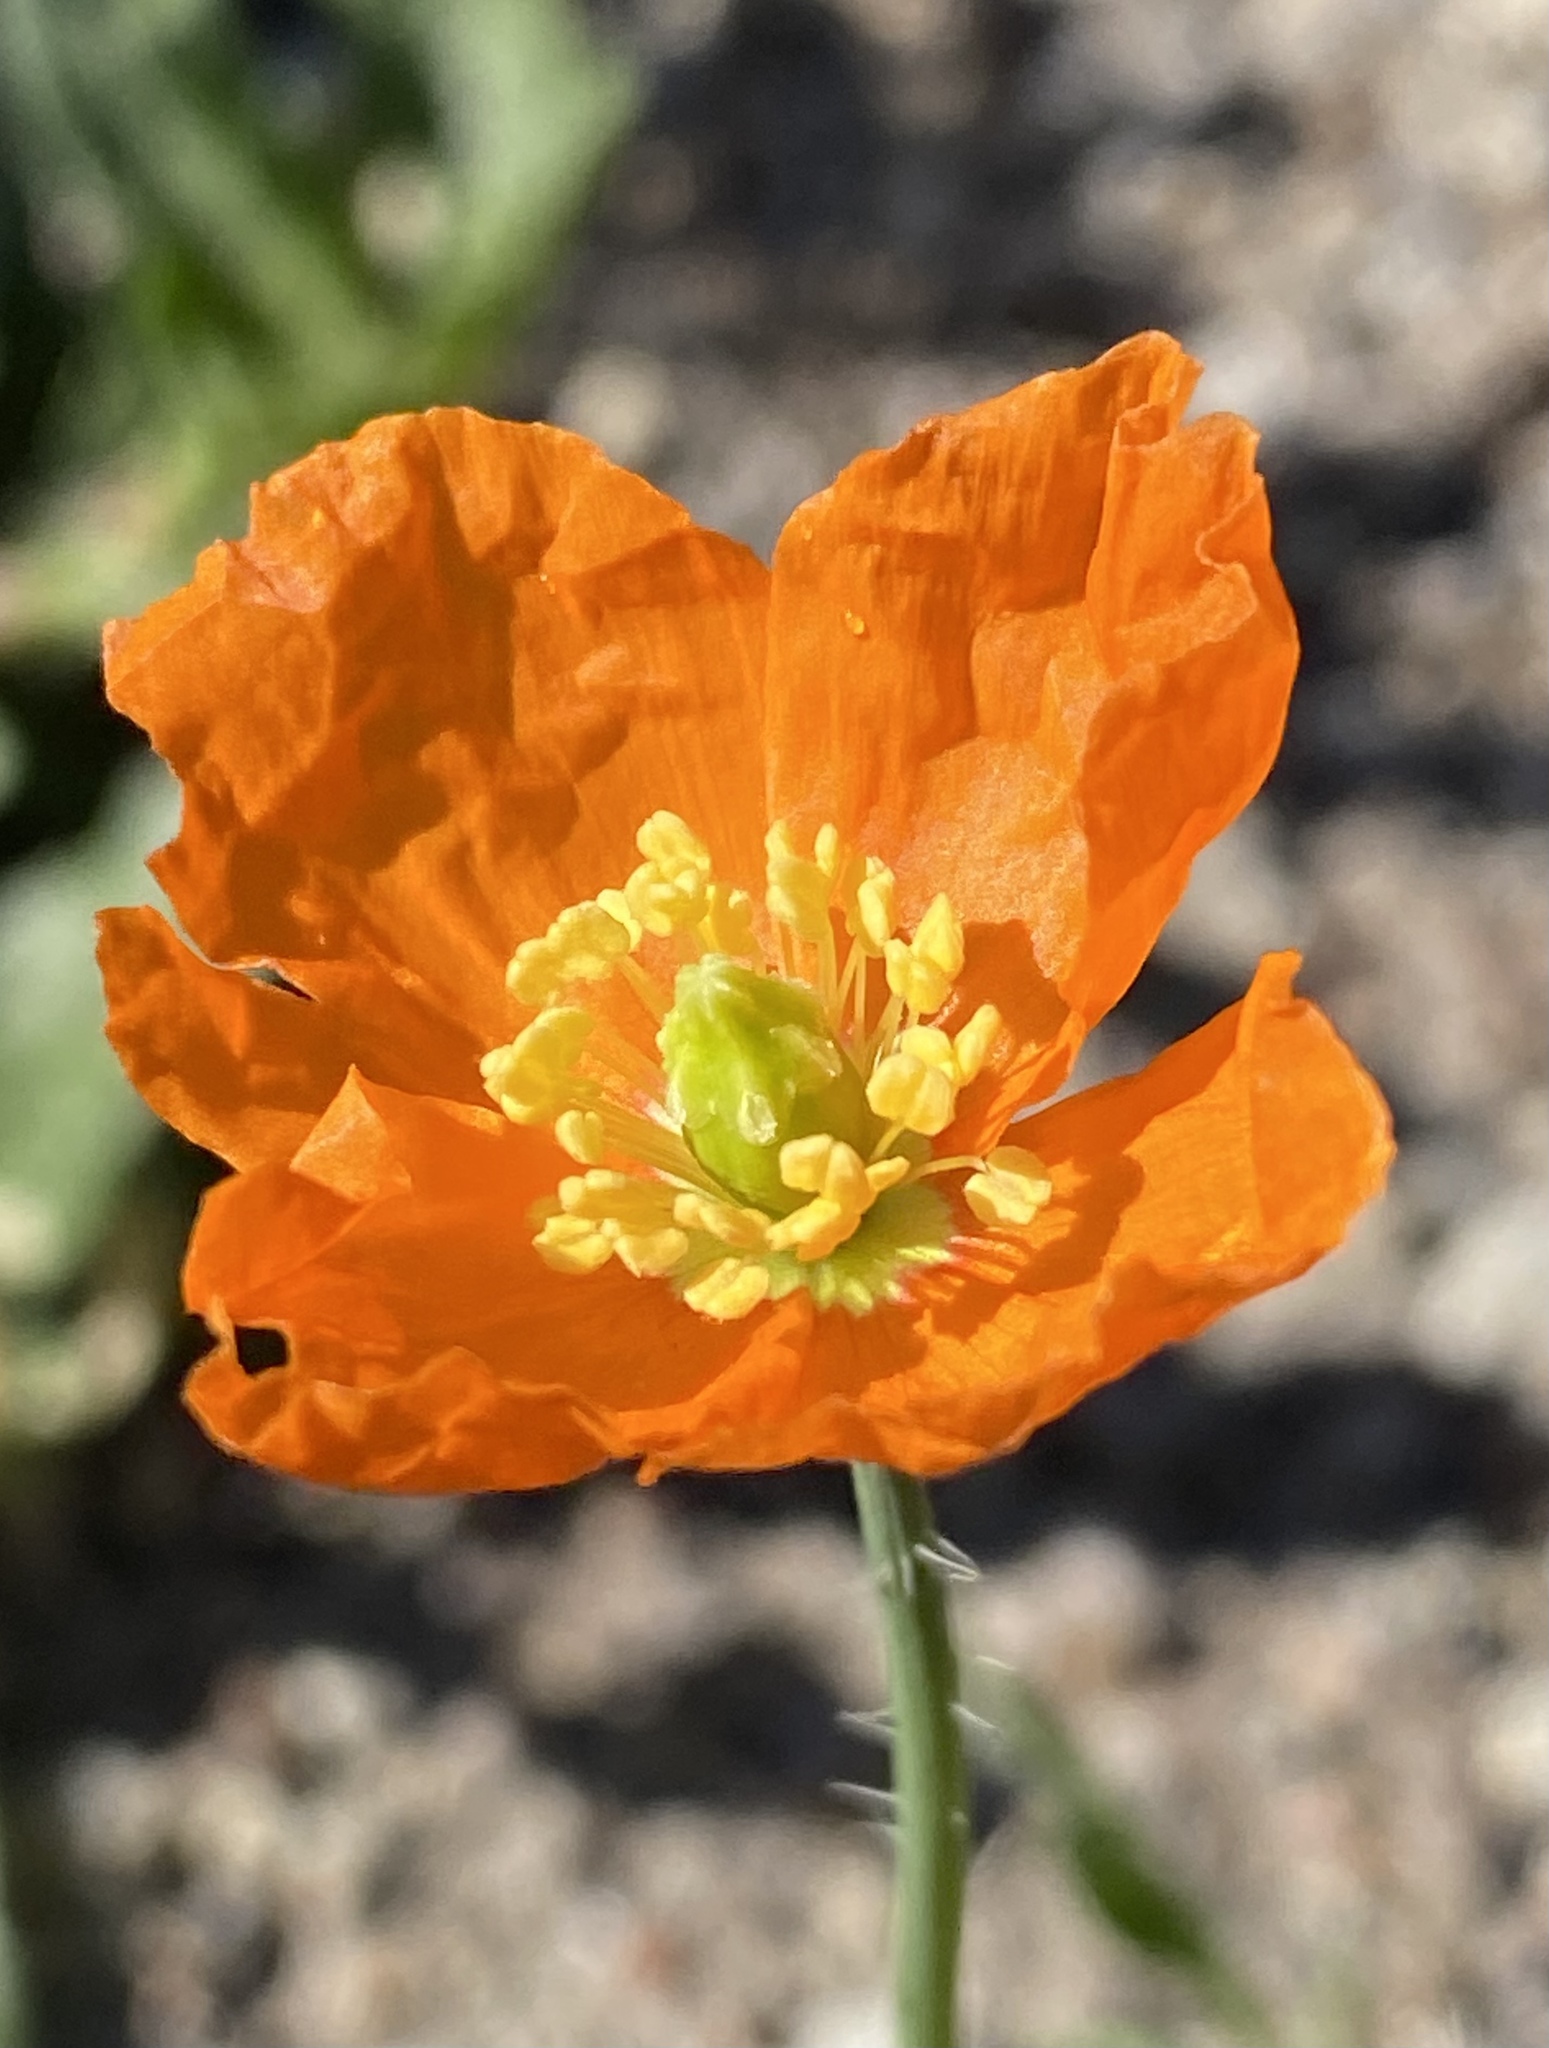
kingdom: Plantae
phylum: Tracheophyta
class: Magnoliopsida
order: Ranunculales
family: Papaveraceae
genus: Papaver
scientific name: Papaver californicum
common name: Fire poppy
